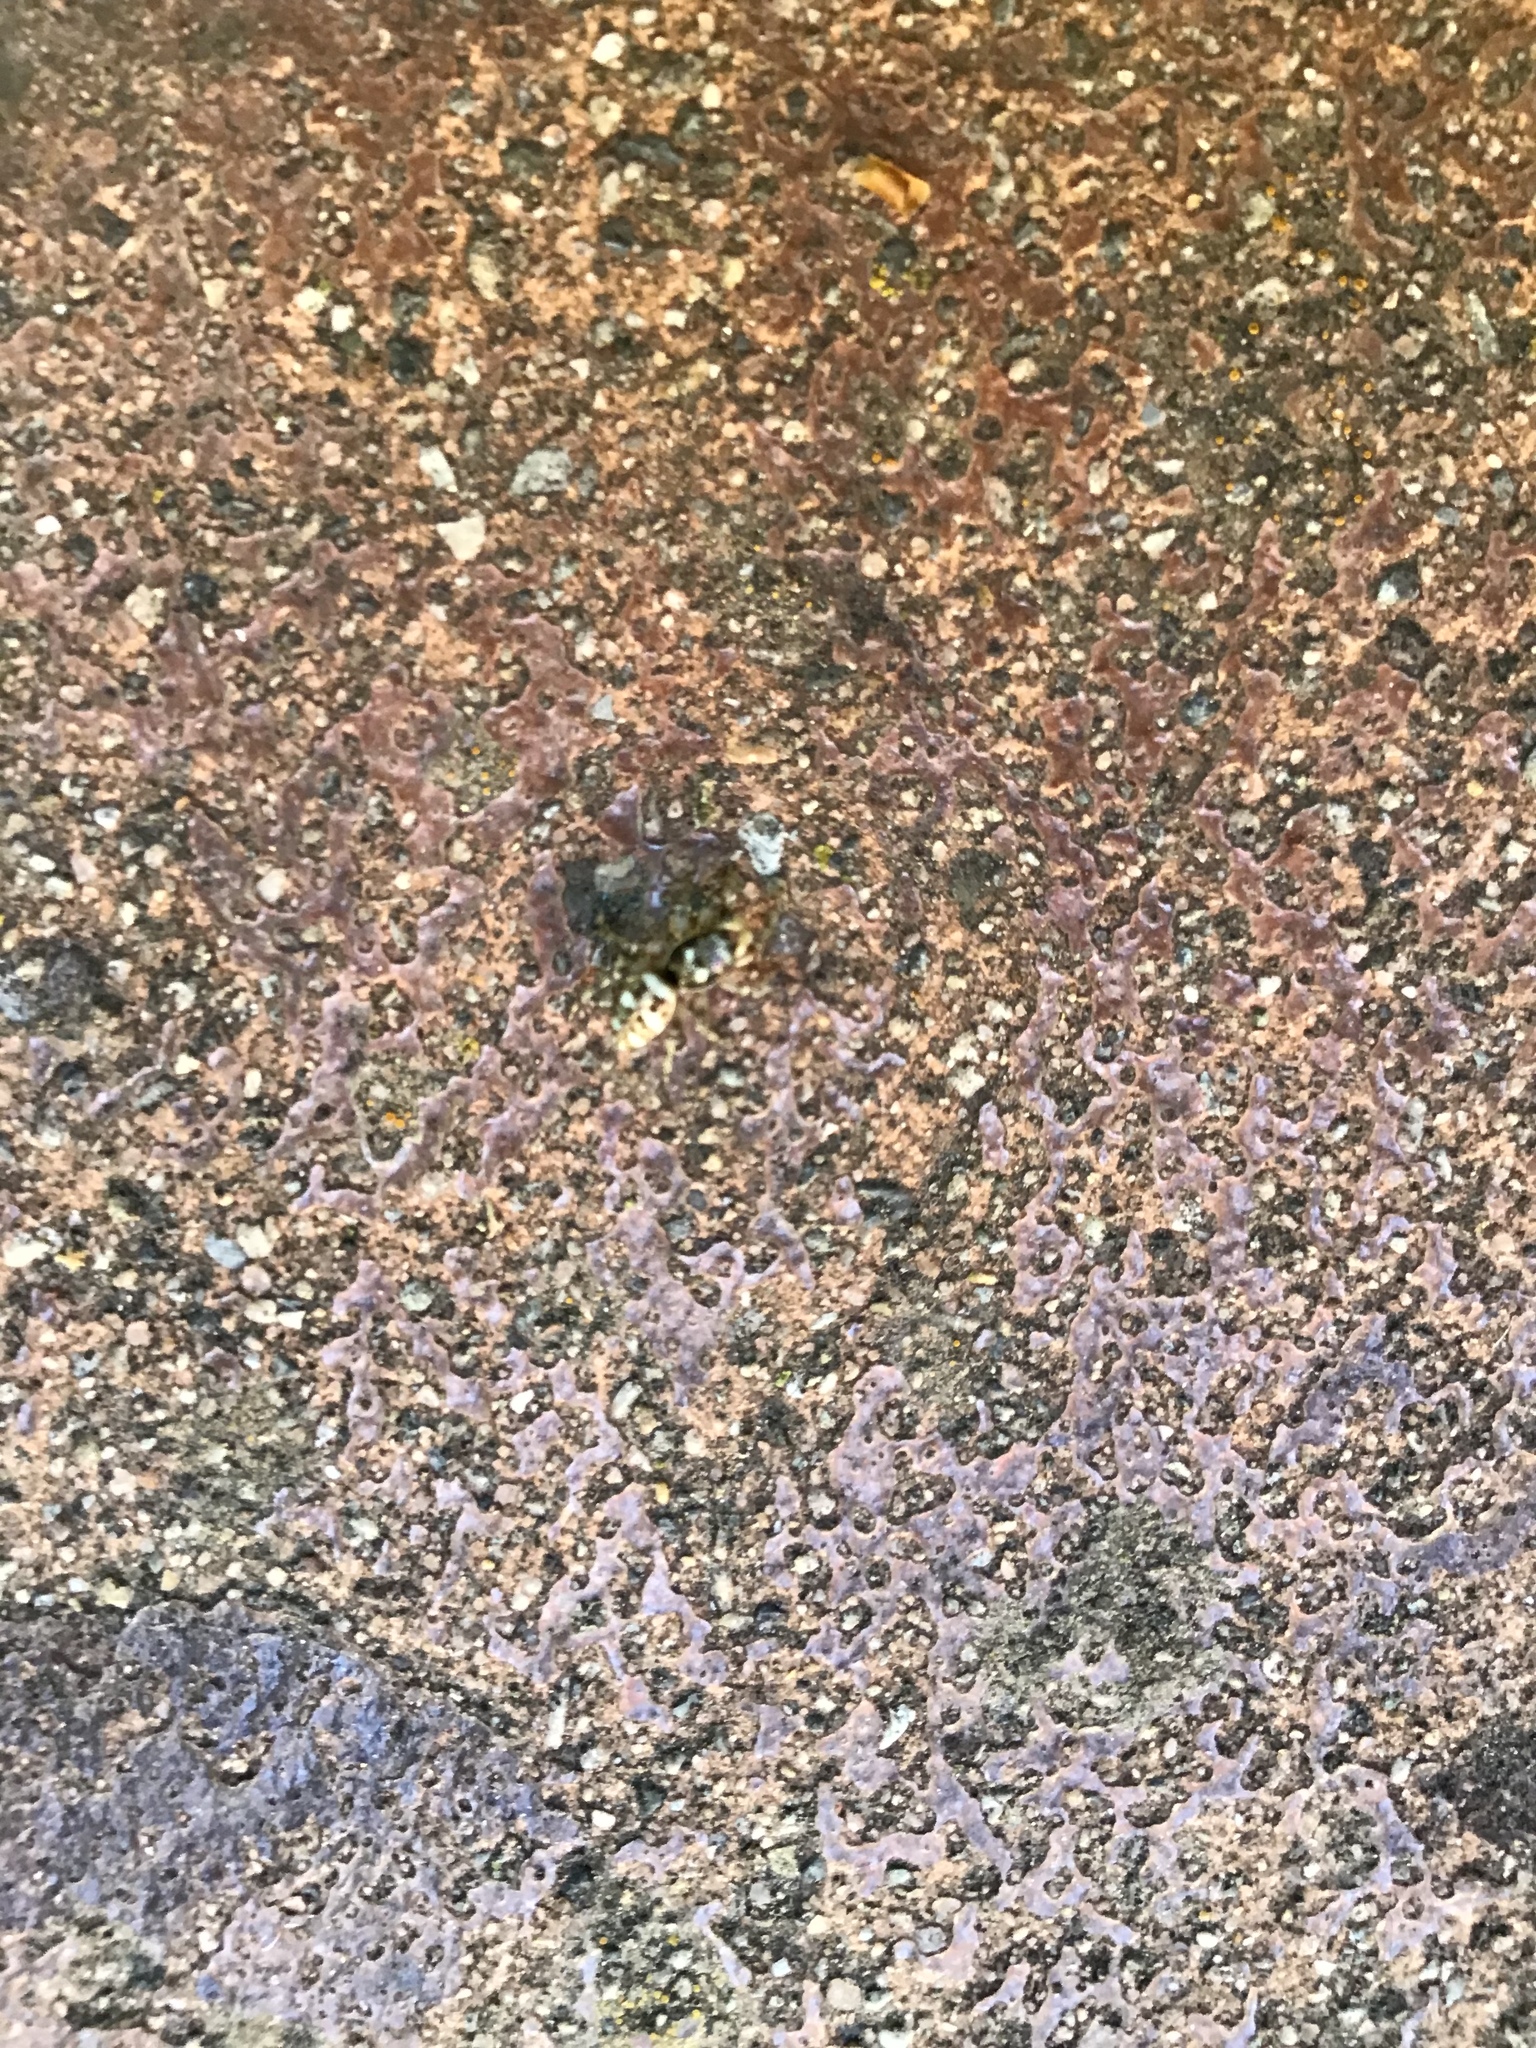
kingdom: Animalia
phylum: Arthropoda
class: Arachnida
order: Araneae
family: Salticidae
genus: Salticus
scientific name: Salticus scenicus
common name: Zebra jumper
